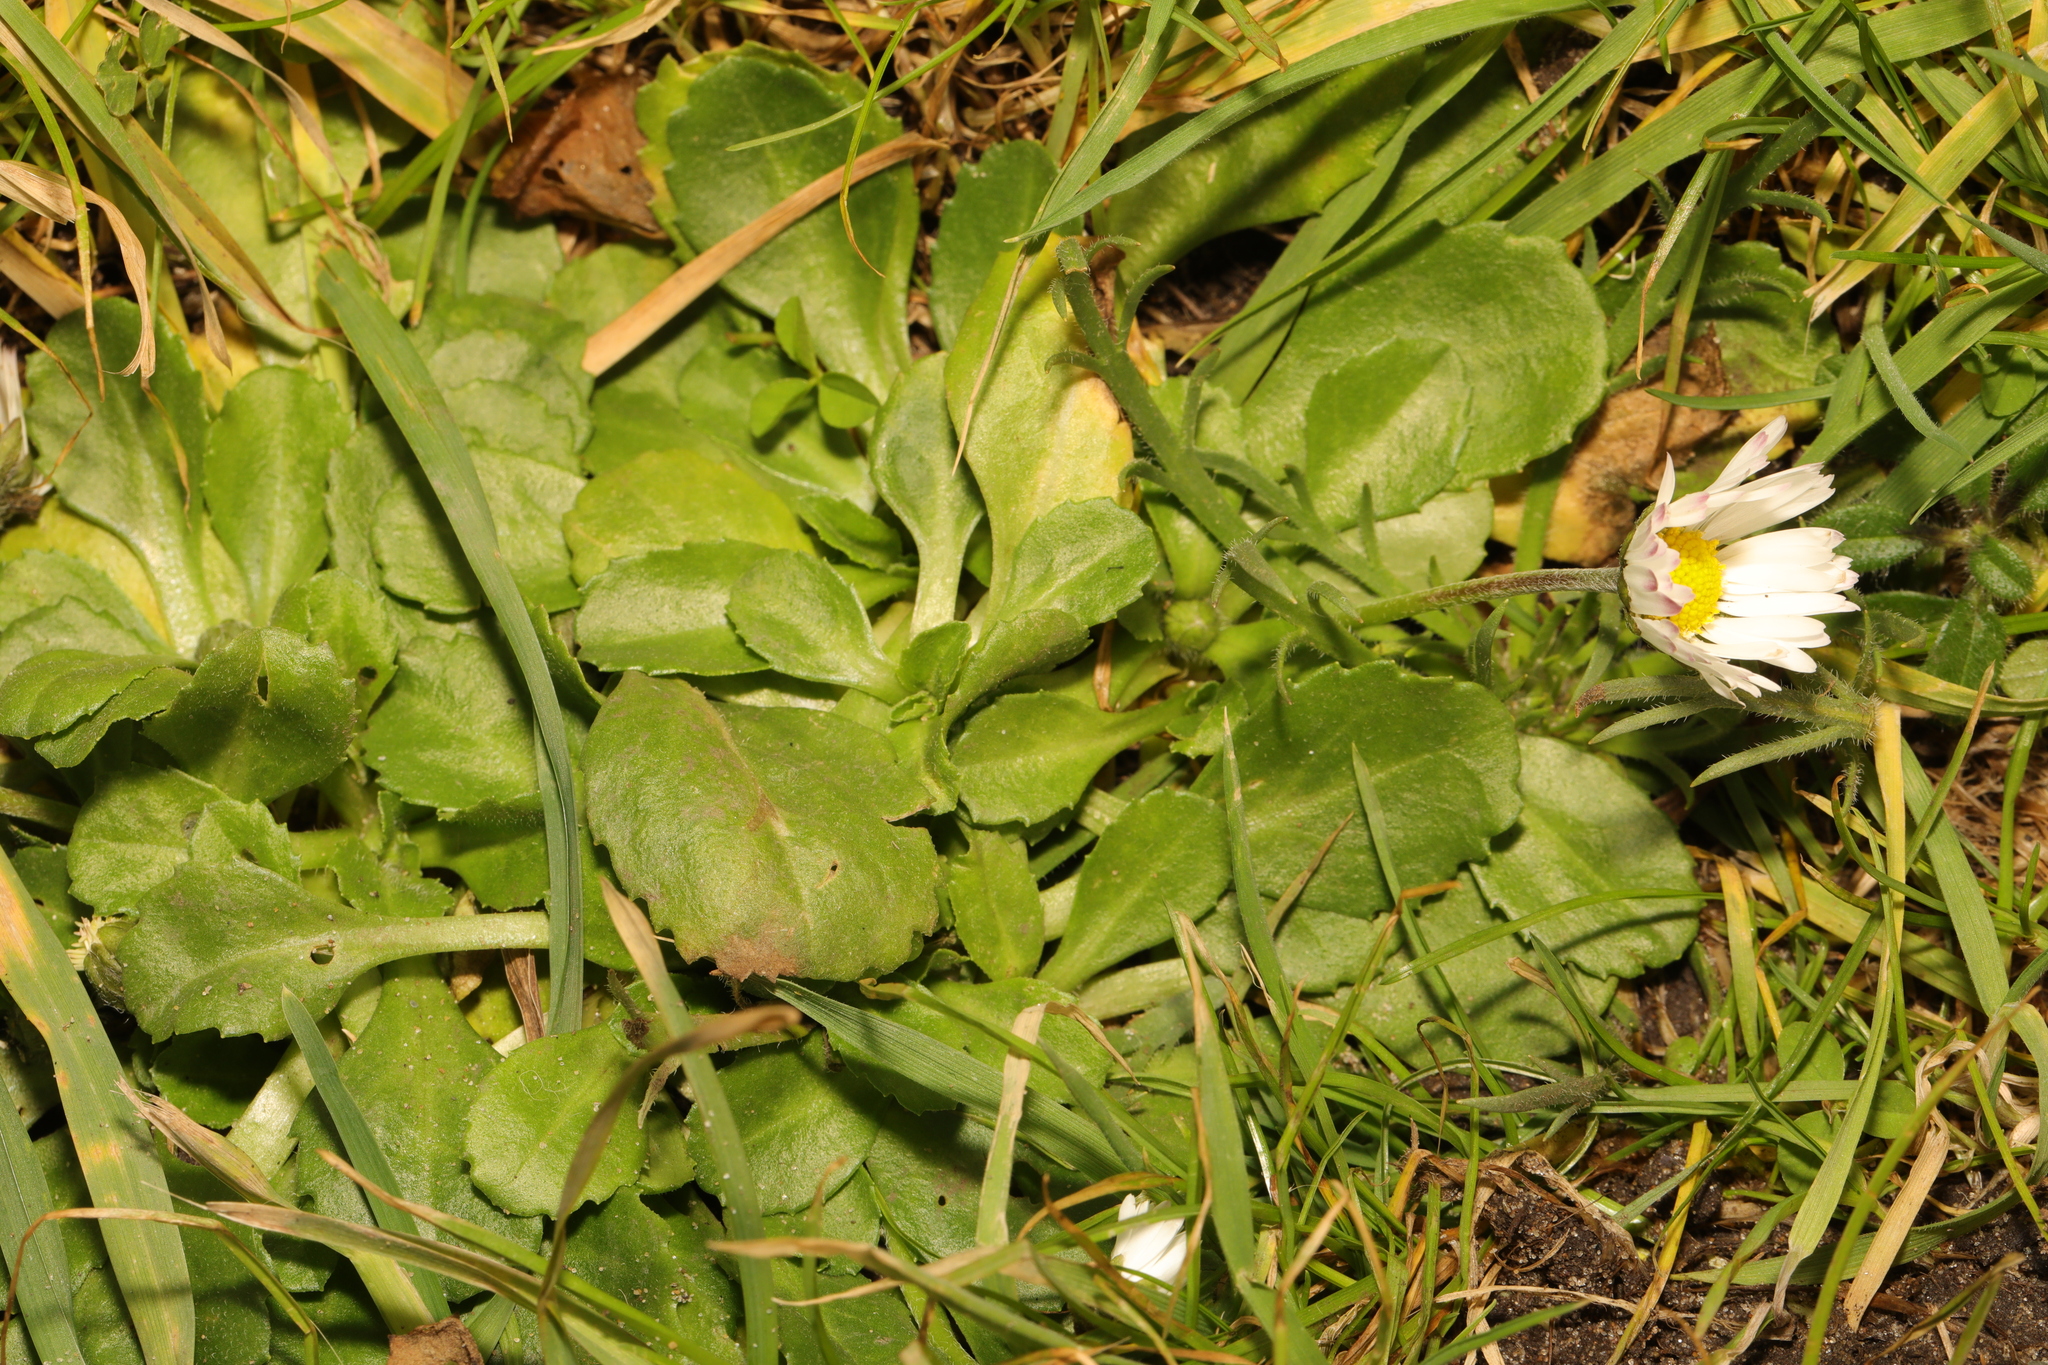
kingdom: Plantae
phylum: Tracheophyta
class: Magnoliopsida
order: Asterales
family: Asteraceae
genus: Bellis
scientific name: Bellis perennis
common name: Lawndaisy
